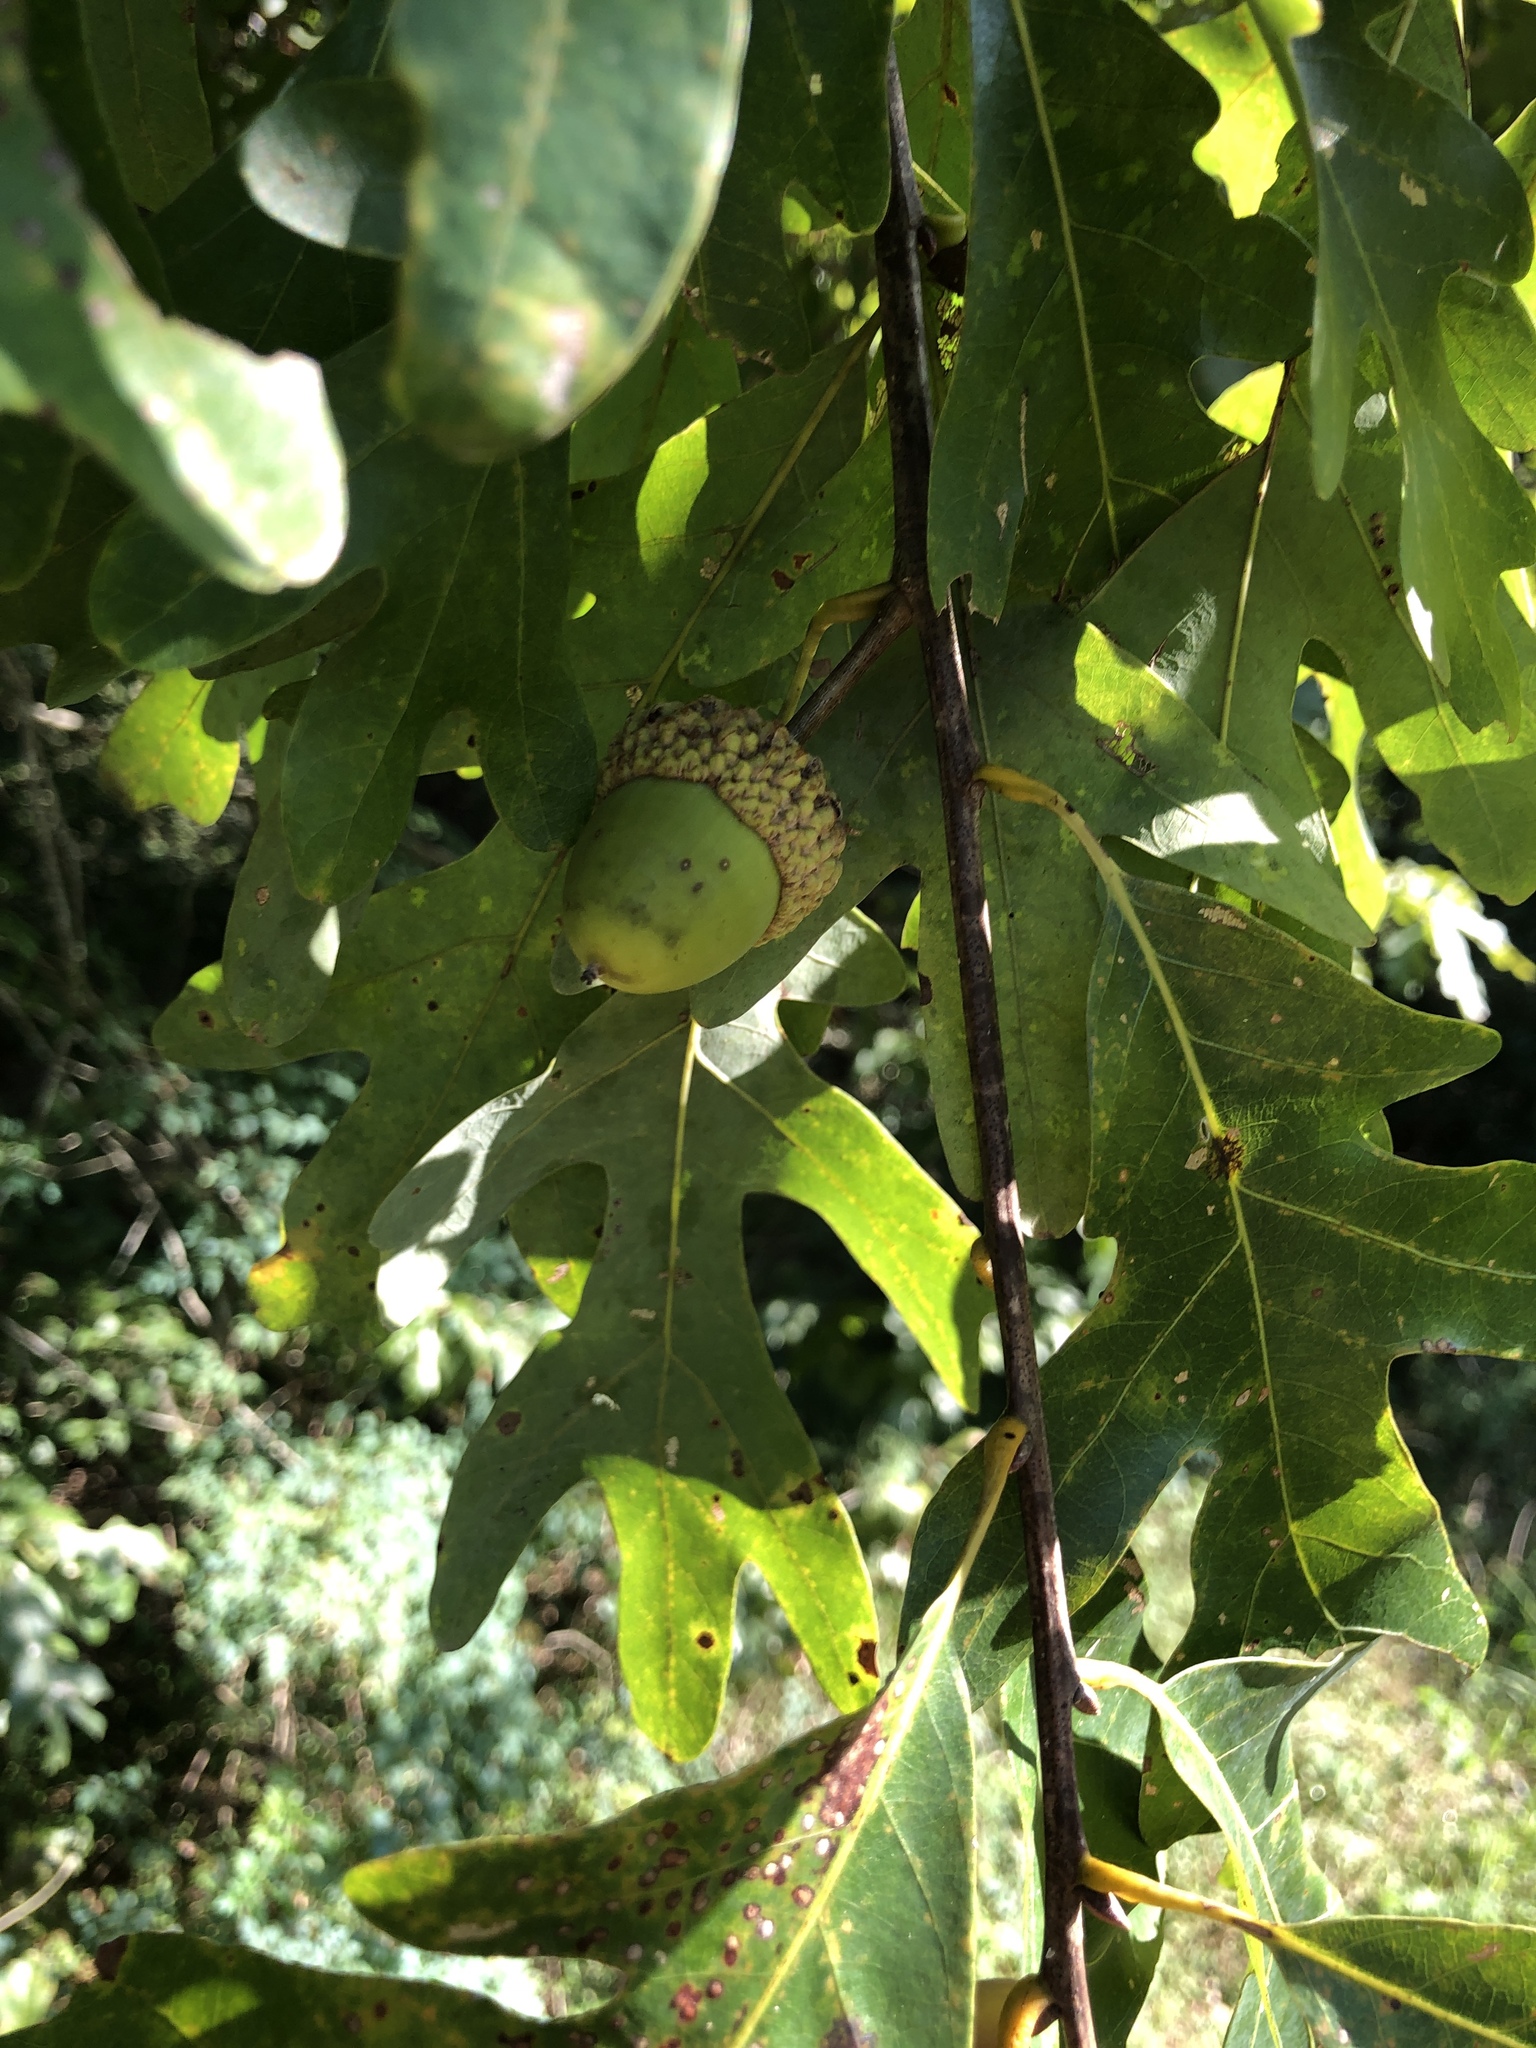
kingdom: Plantae
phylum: Tracheophyta
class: Magnoliopsida
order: Fagales
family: Fagaceae
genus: Quercus
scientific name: Quercus alba
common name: White oak
